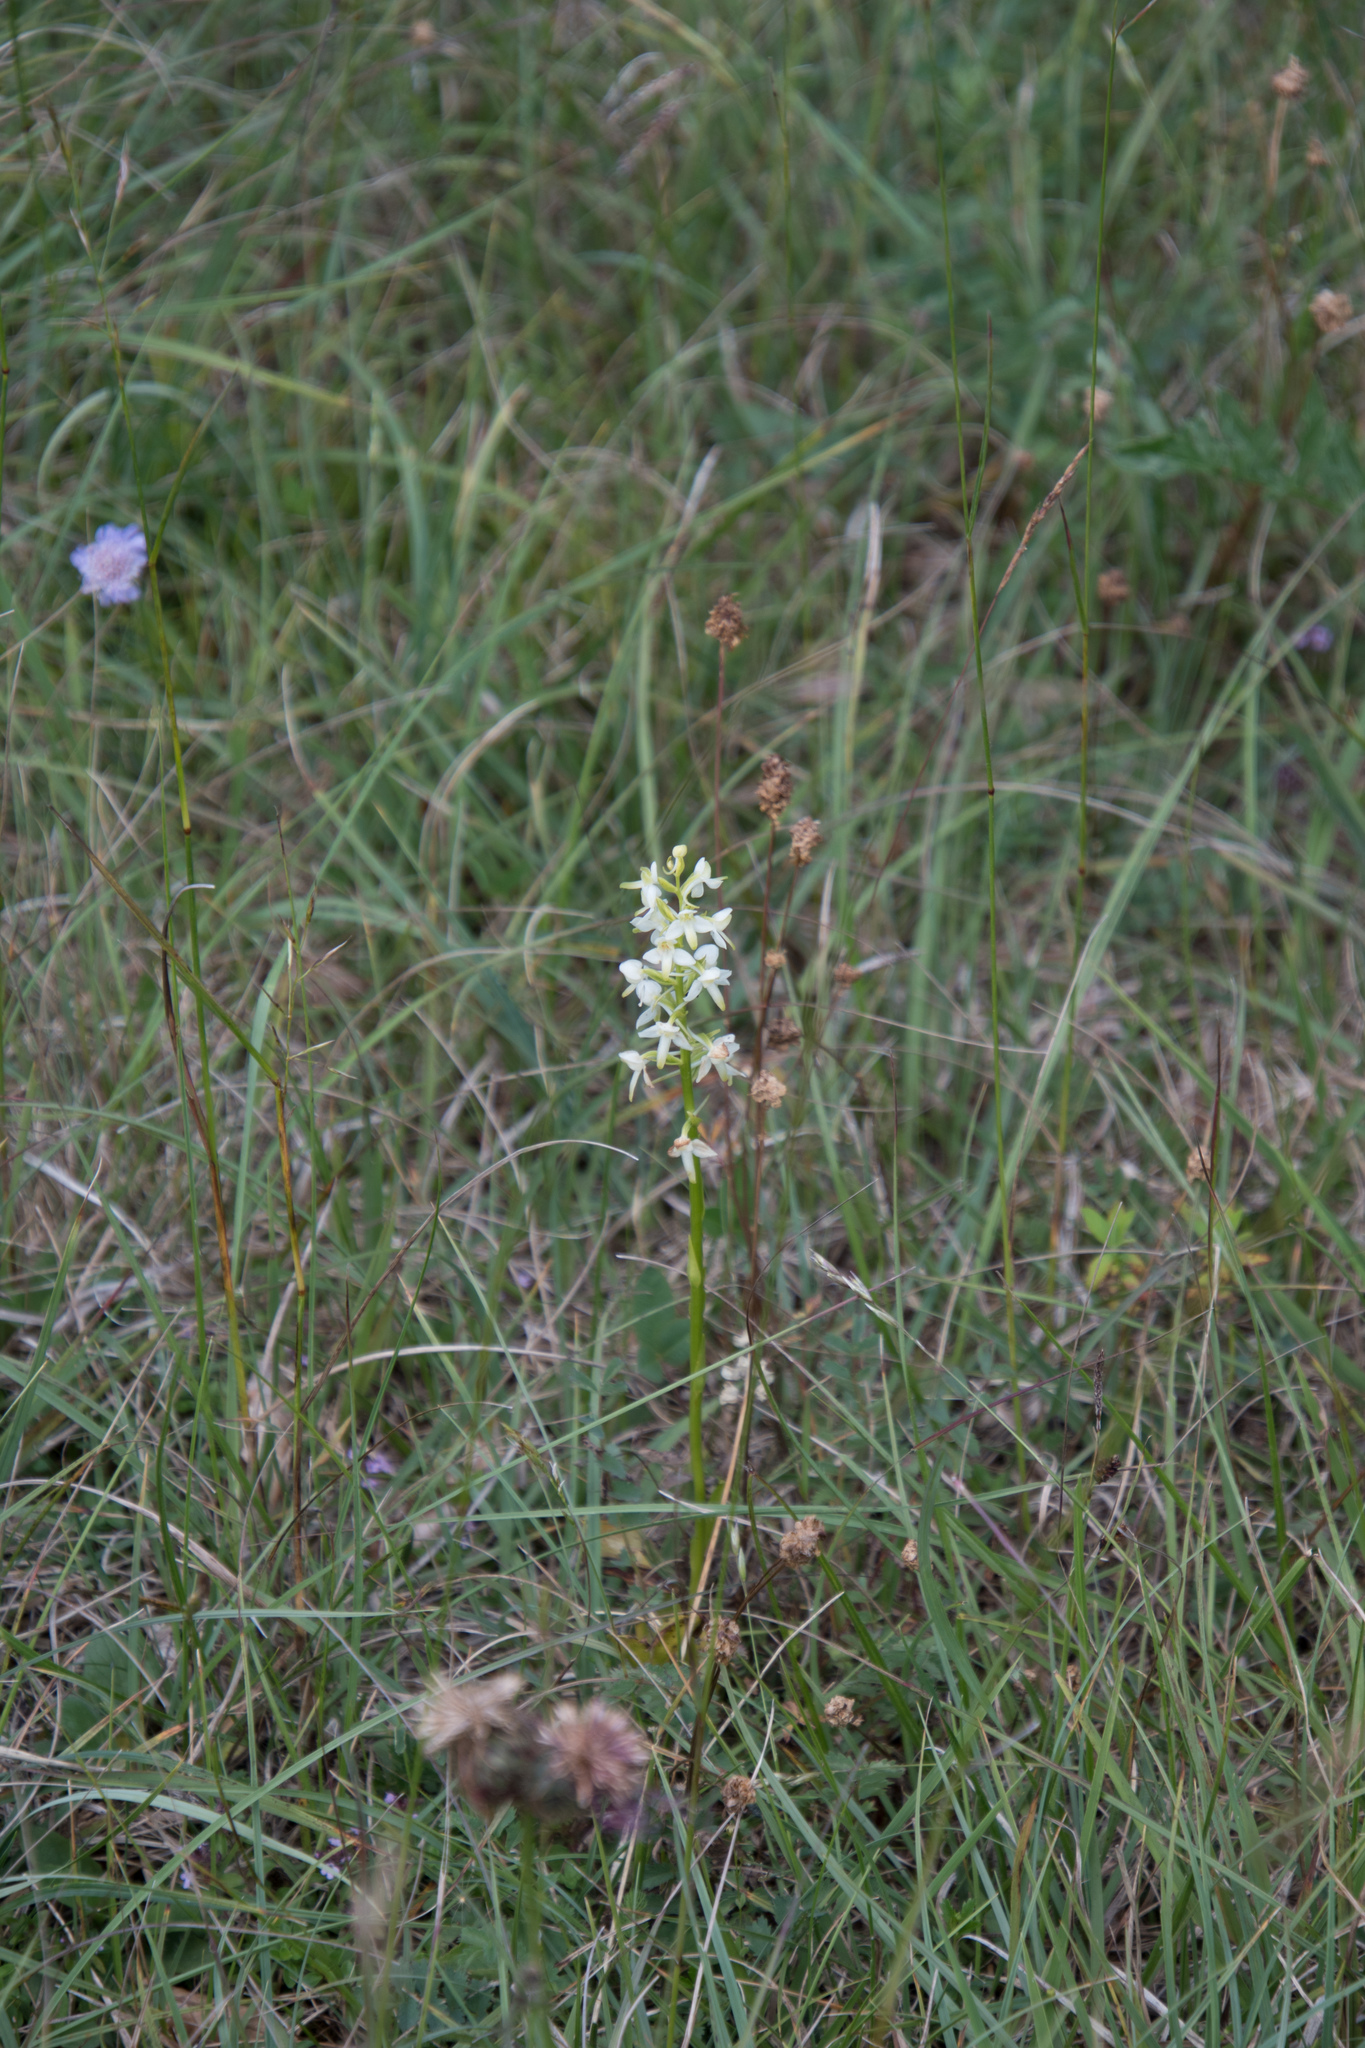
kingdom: Plantae
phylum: Tracheophyta
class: Liliopsida
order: Asparagales
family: Orchidaceae
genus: Platanthera
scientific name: Platanthera bifolia
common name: Lesser butterfly-orchid
